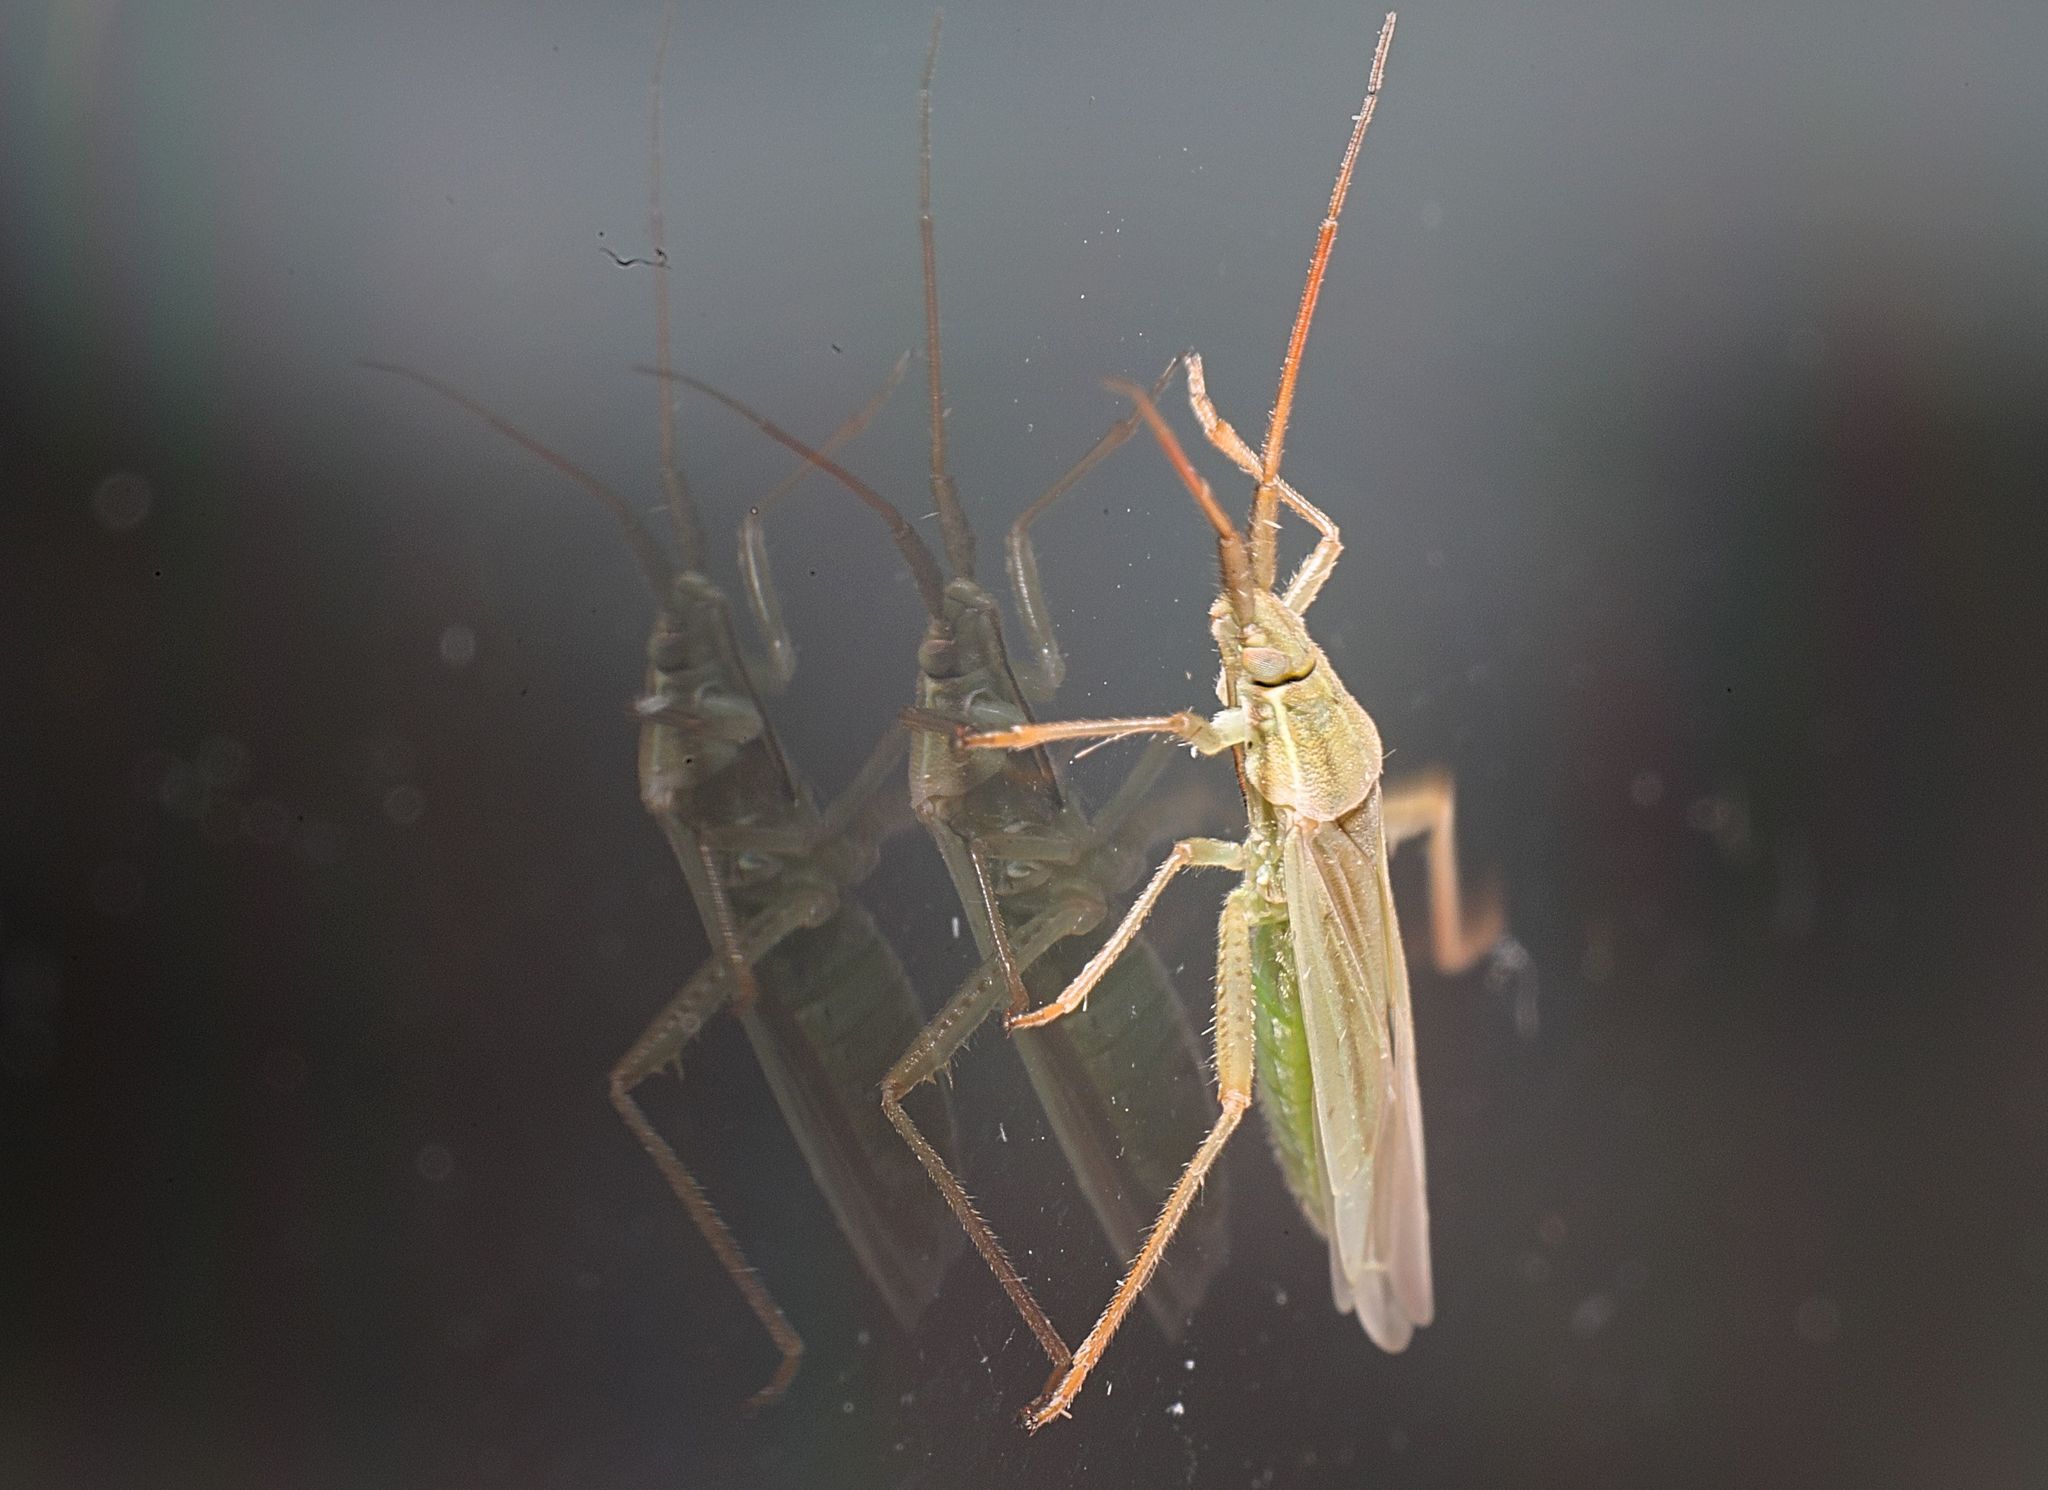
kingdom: Animalia
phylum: Arthropoda
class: Insecta
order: Hemiptera
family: Miridae
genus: Stenodema
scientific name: Stenodema calcarata
